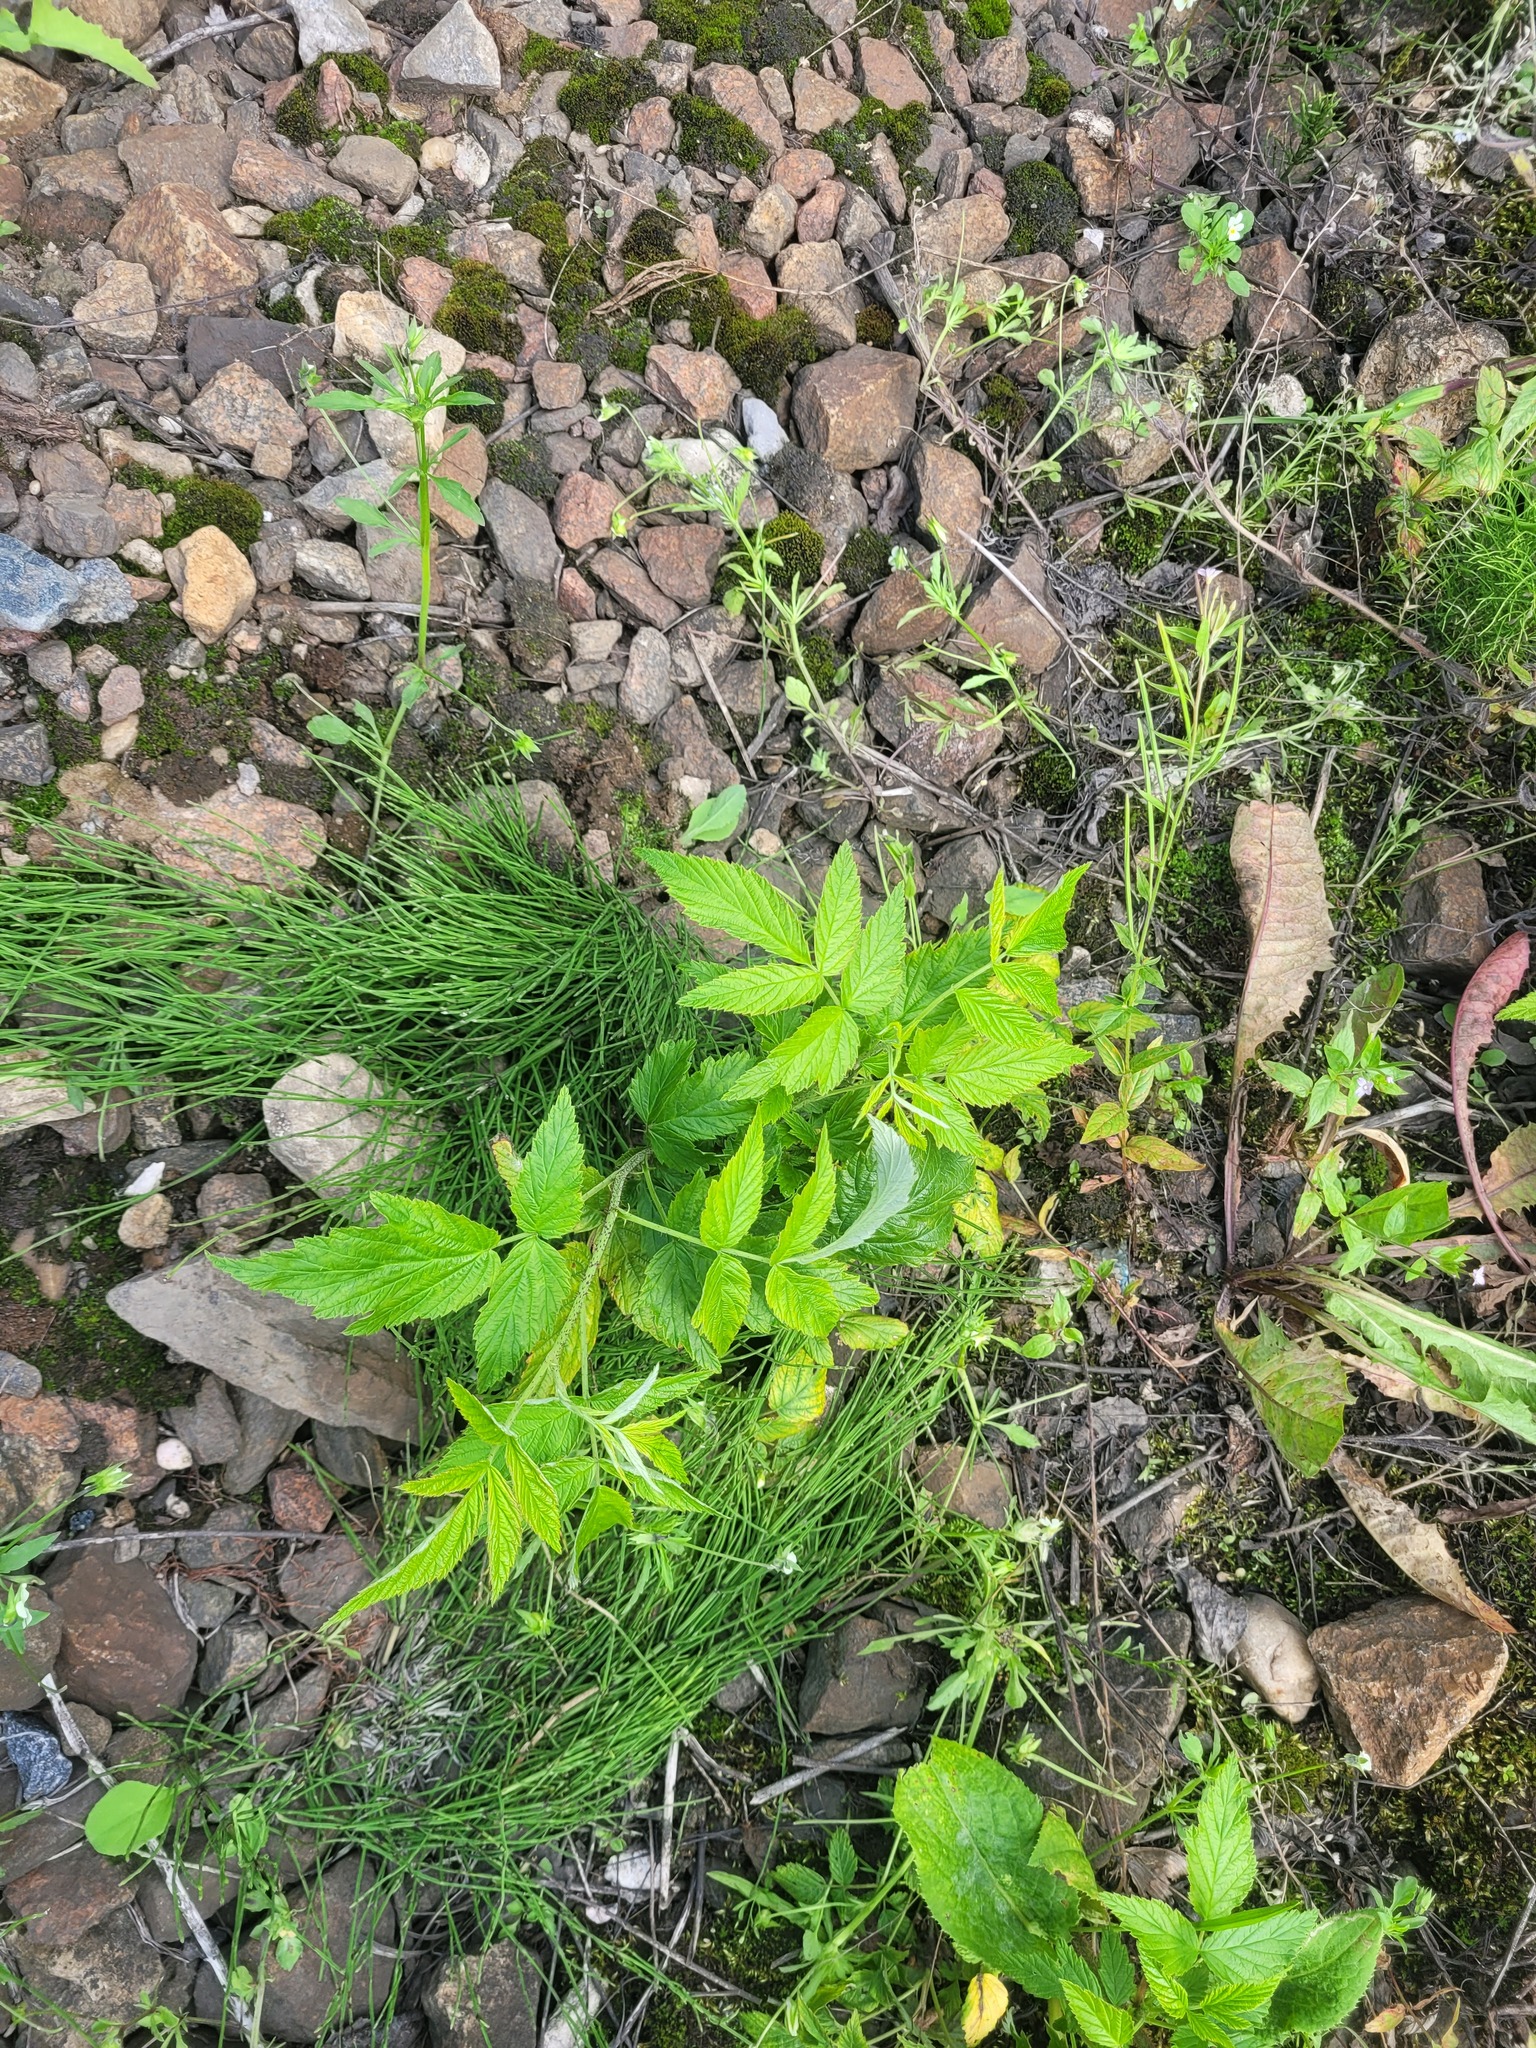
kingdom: Plantae
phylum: Tracheophyta
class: Magnoliopsida
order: Rosales
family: Rosaceae
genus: Rubus
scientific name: Rubus idaeus
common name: Raspberry
